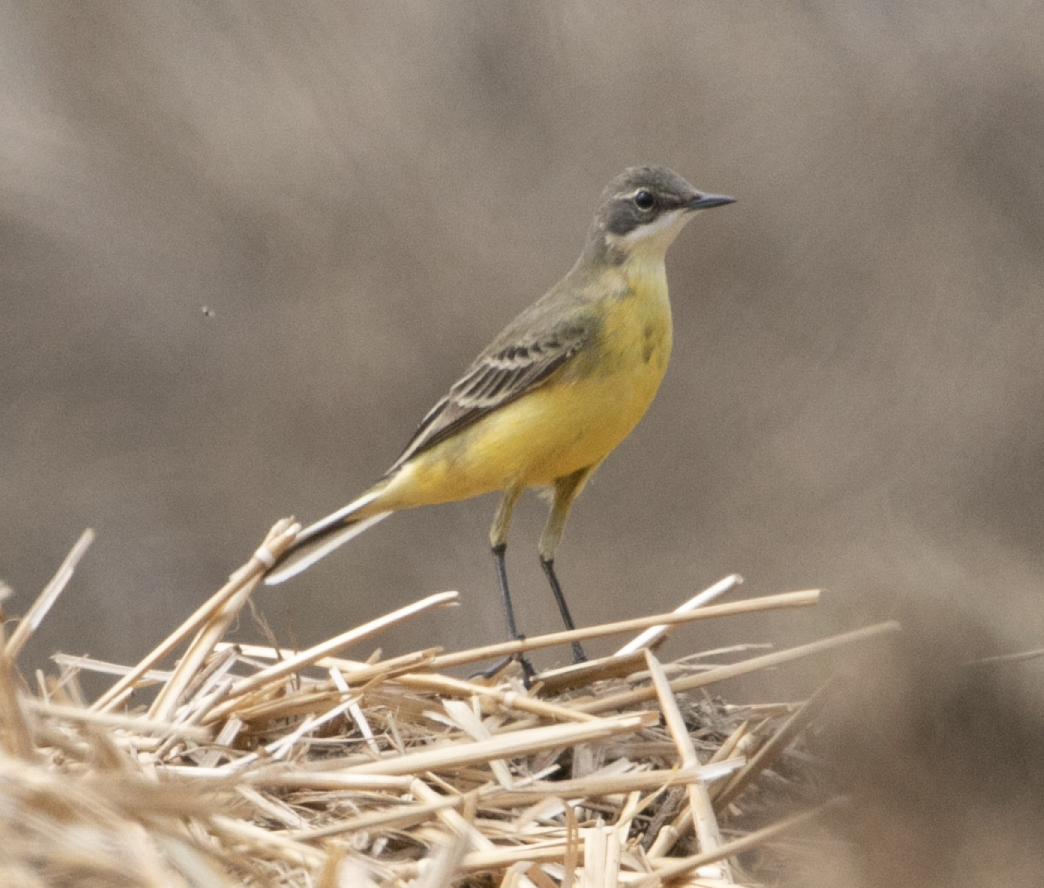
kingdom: Animalia
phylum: Chordata
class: Aves
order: Passeriformes
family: Motacillidae
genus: Motacilla
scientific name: Motacilla flava
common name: Western yellow wagtail
